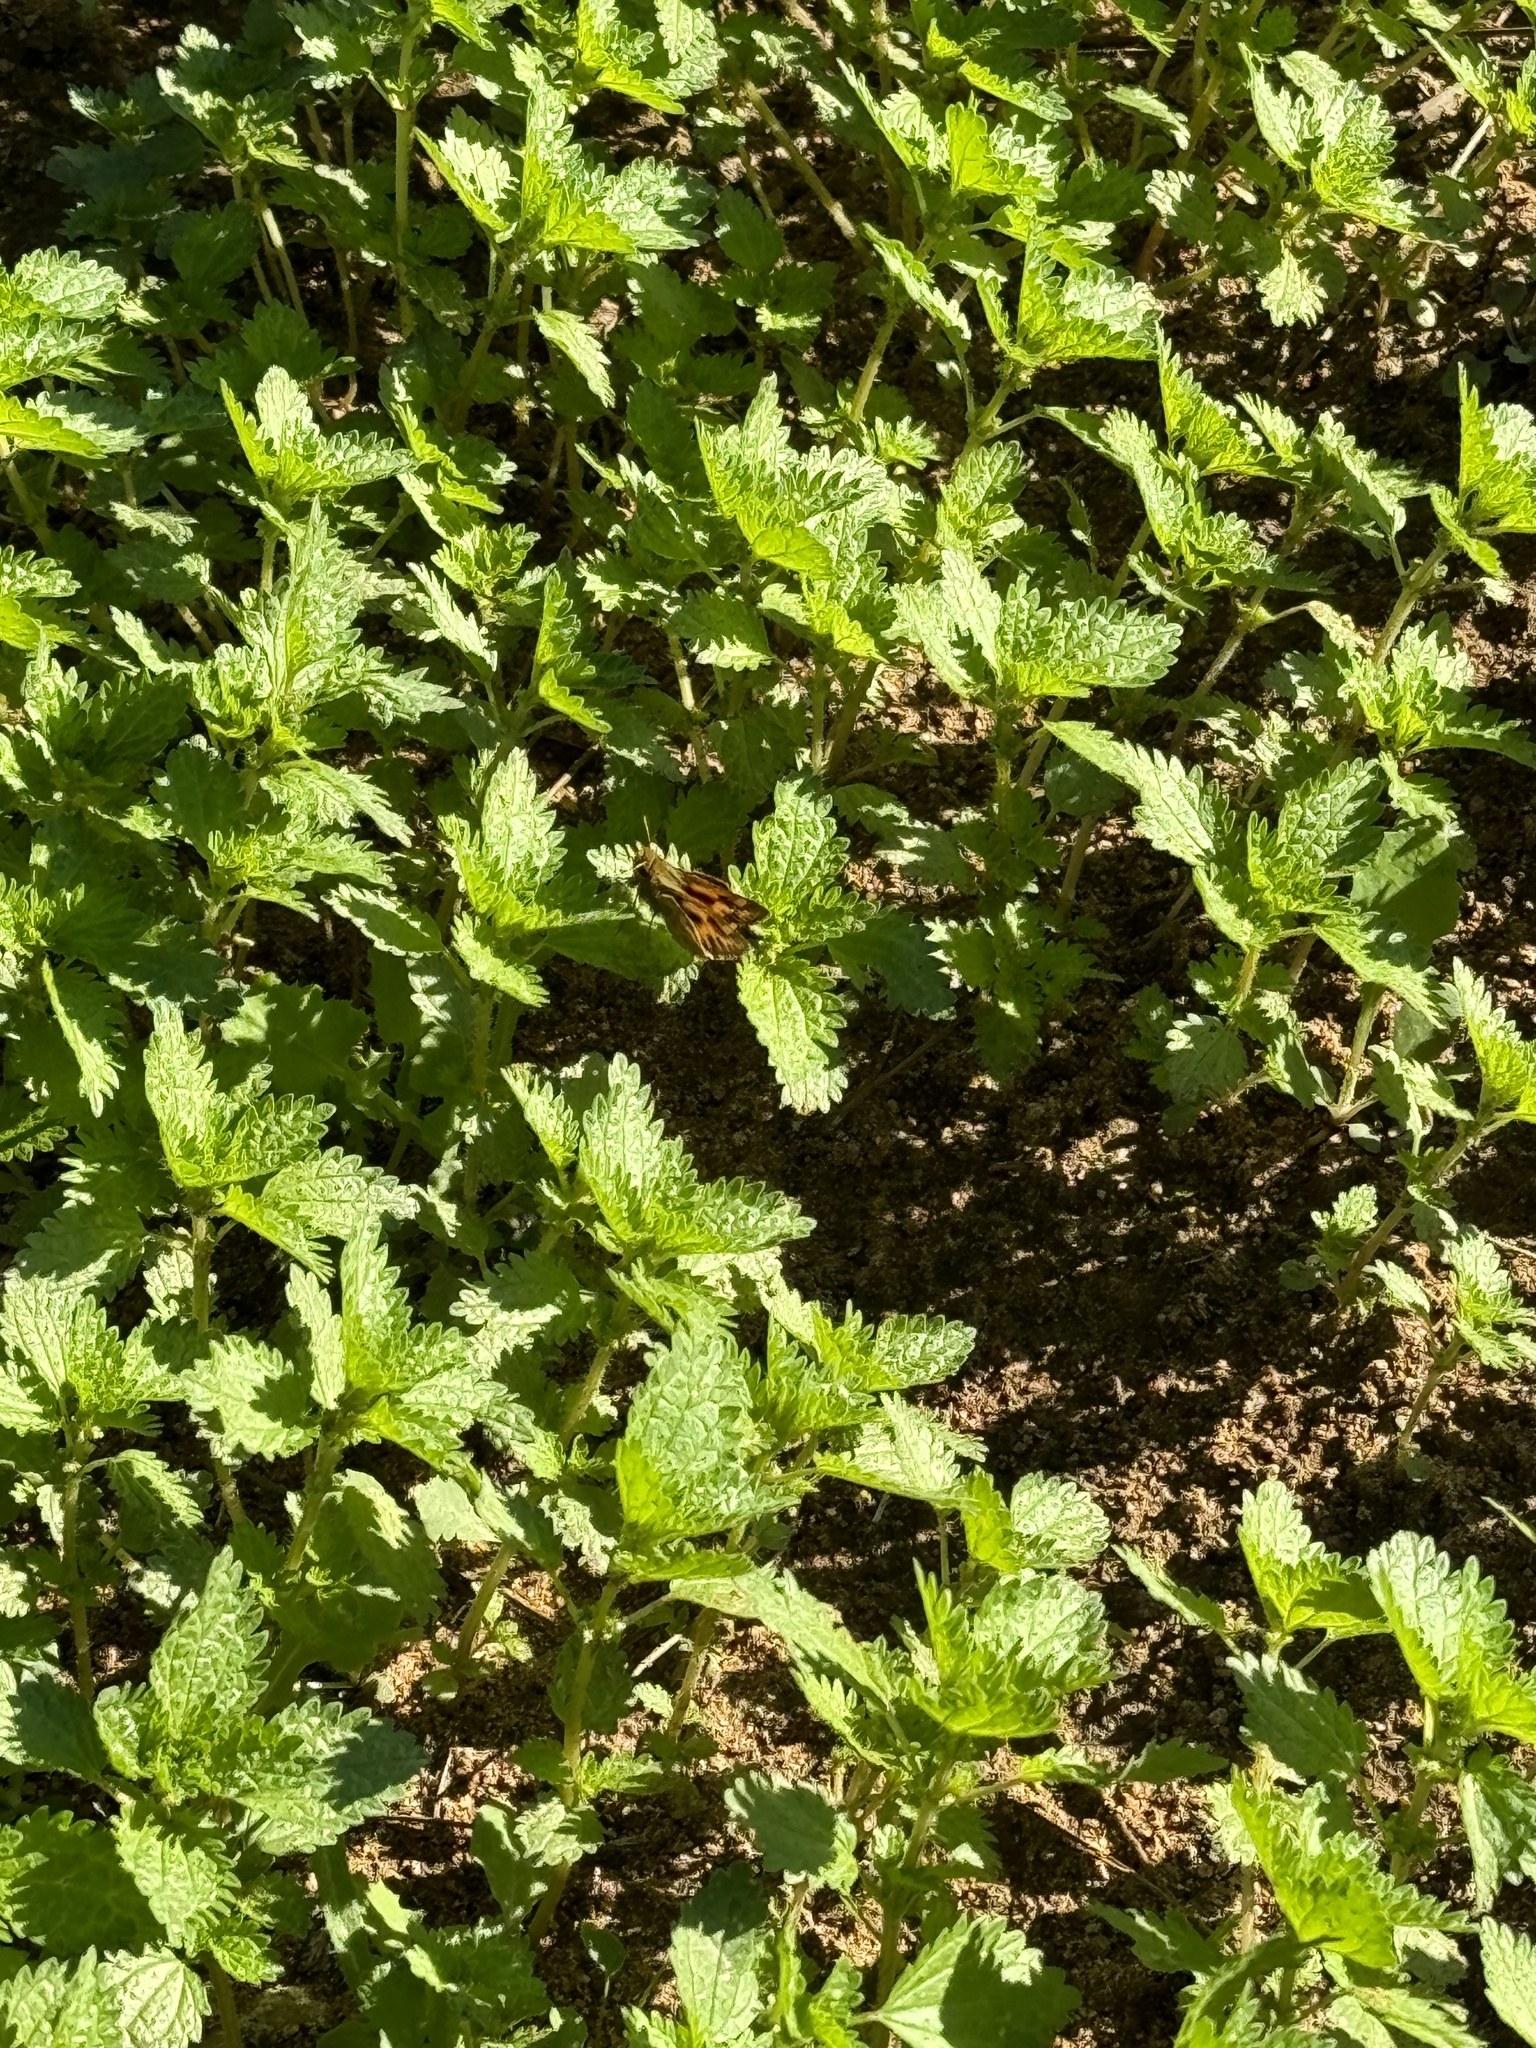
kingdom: Animalia
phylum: Arthropoda
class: Insecta
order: Lepidoptera
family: Hesperiidae
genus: Hylephila
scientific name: Hylephila phyleus
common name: Fiery skipper
